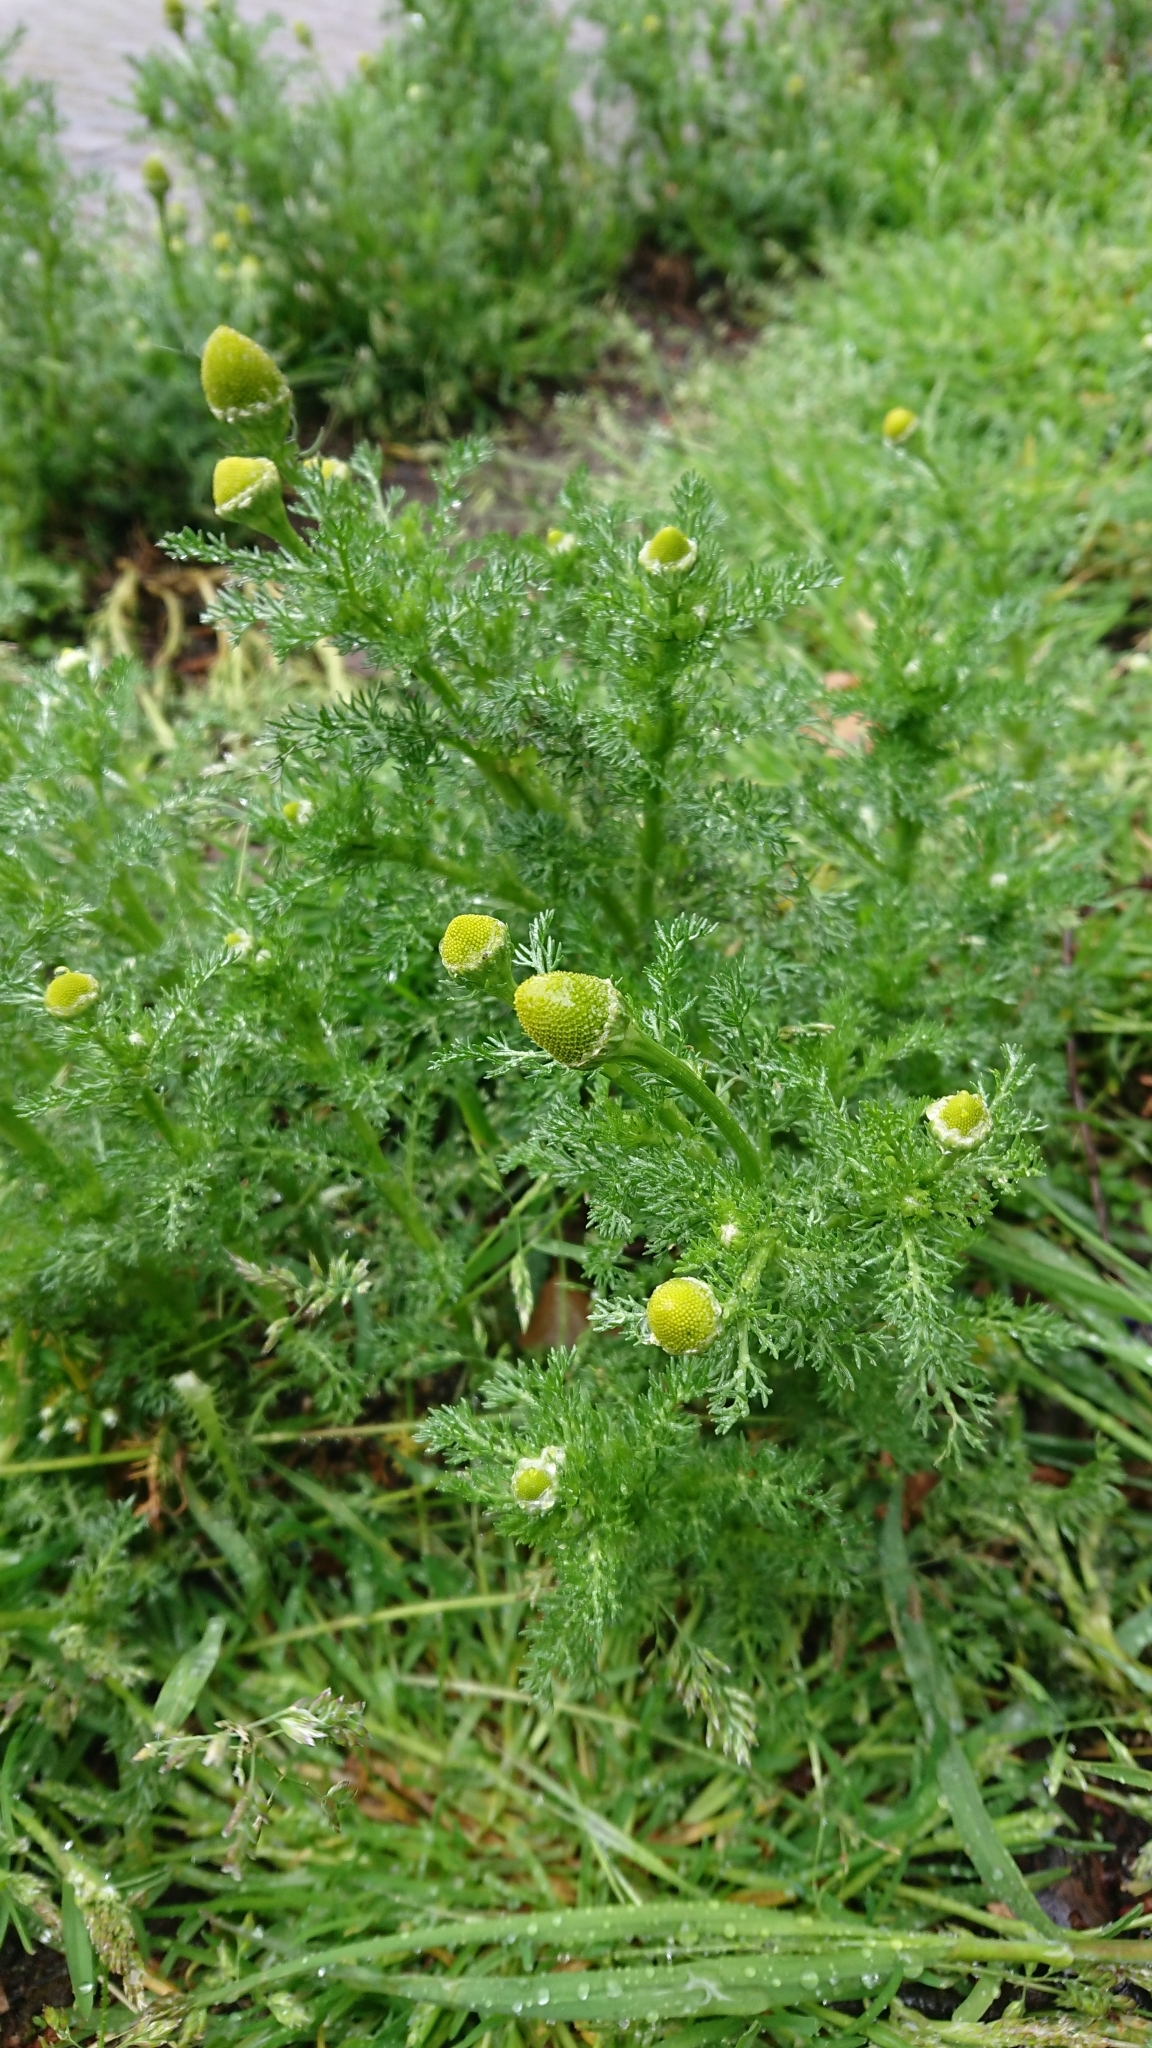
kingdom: Plantae
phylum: Tracheophyta
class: Magnoliopsida
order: Asterales
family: Asteraceae
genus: Matricaria
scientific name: Matricaria discoidea
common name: Disc mayweed
